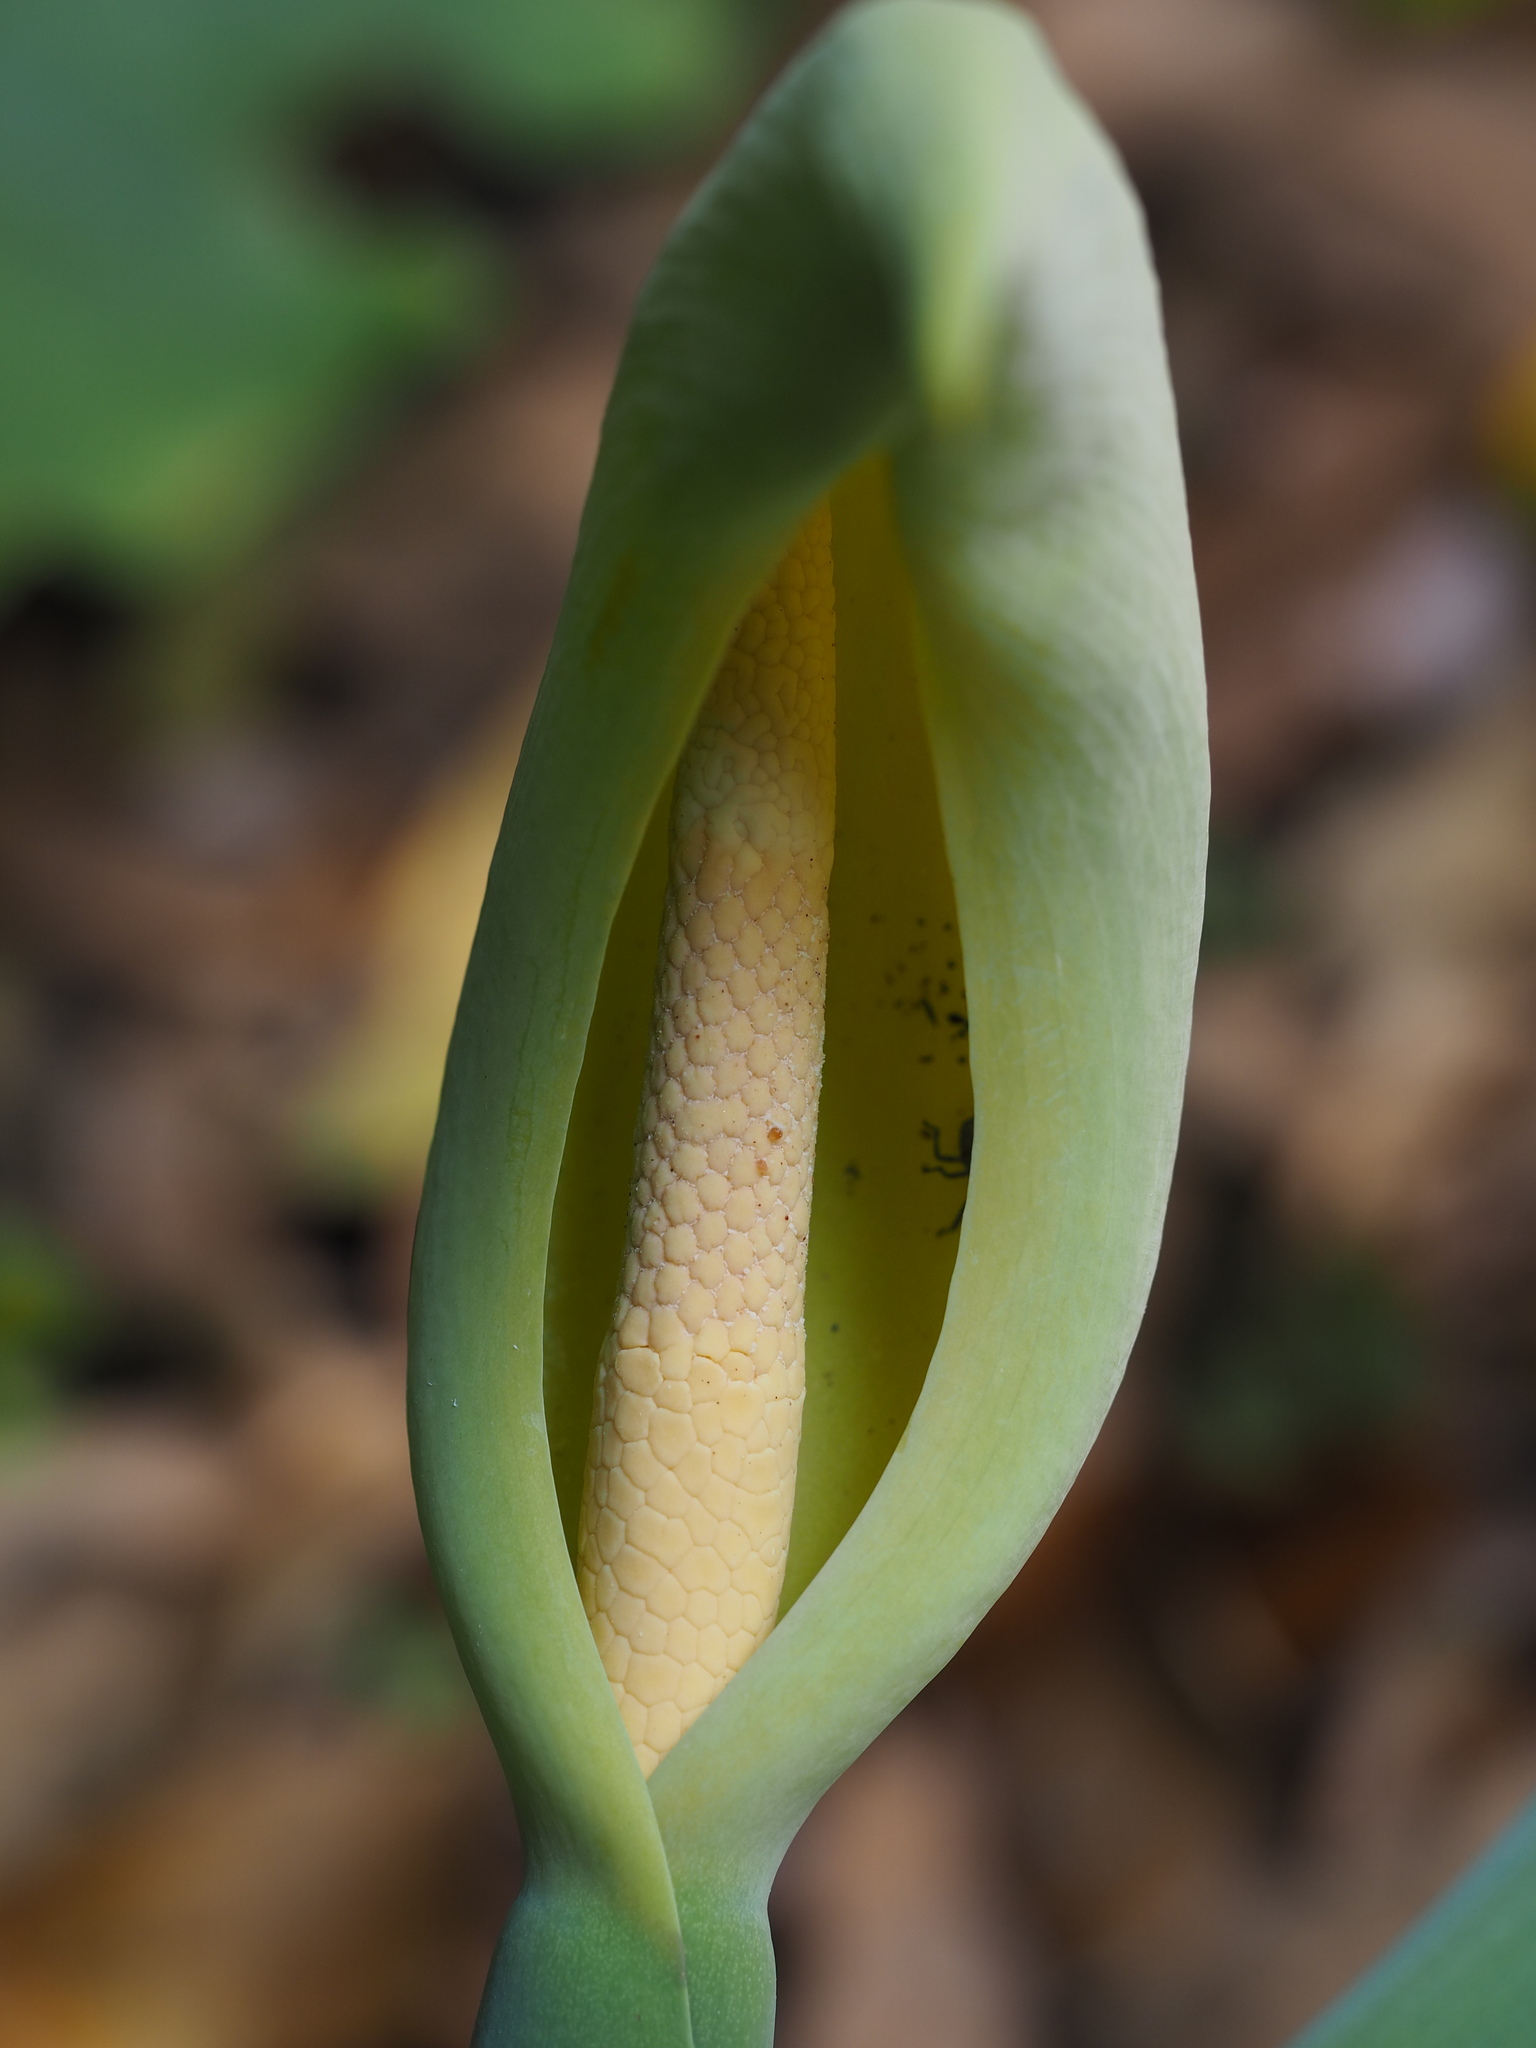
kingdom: Plantae
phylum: Tracheophyta
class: Liliopsida
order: Alismatales
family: Araceae
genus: Alocasia
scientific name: Alocasia odora
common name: Asian taro
